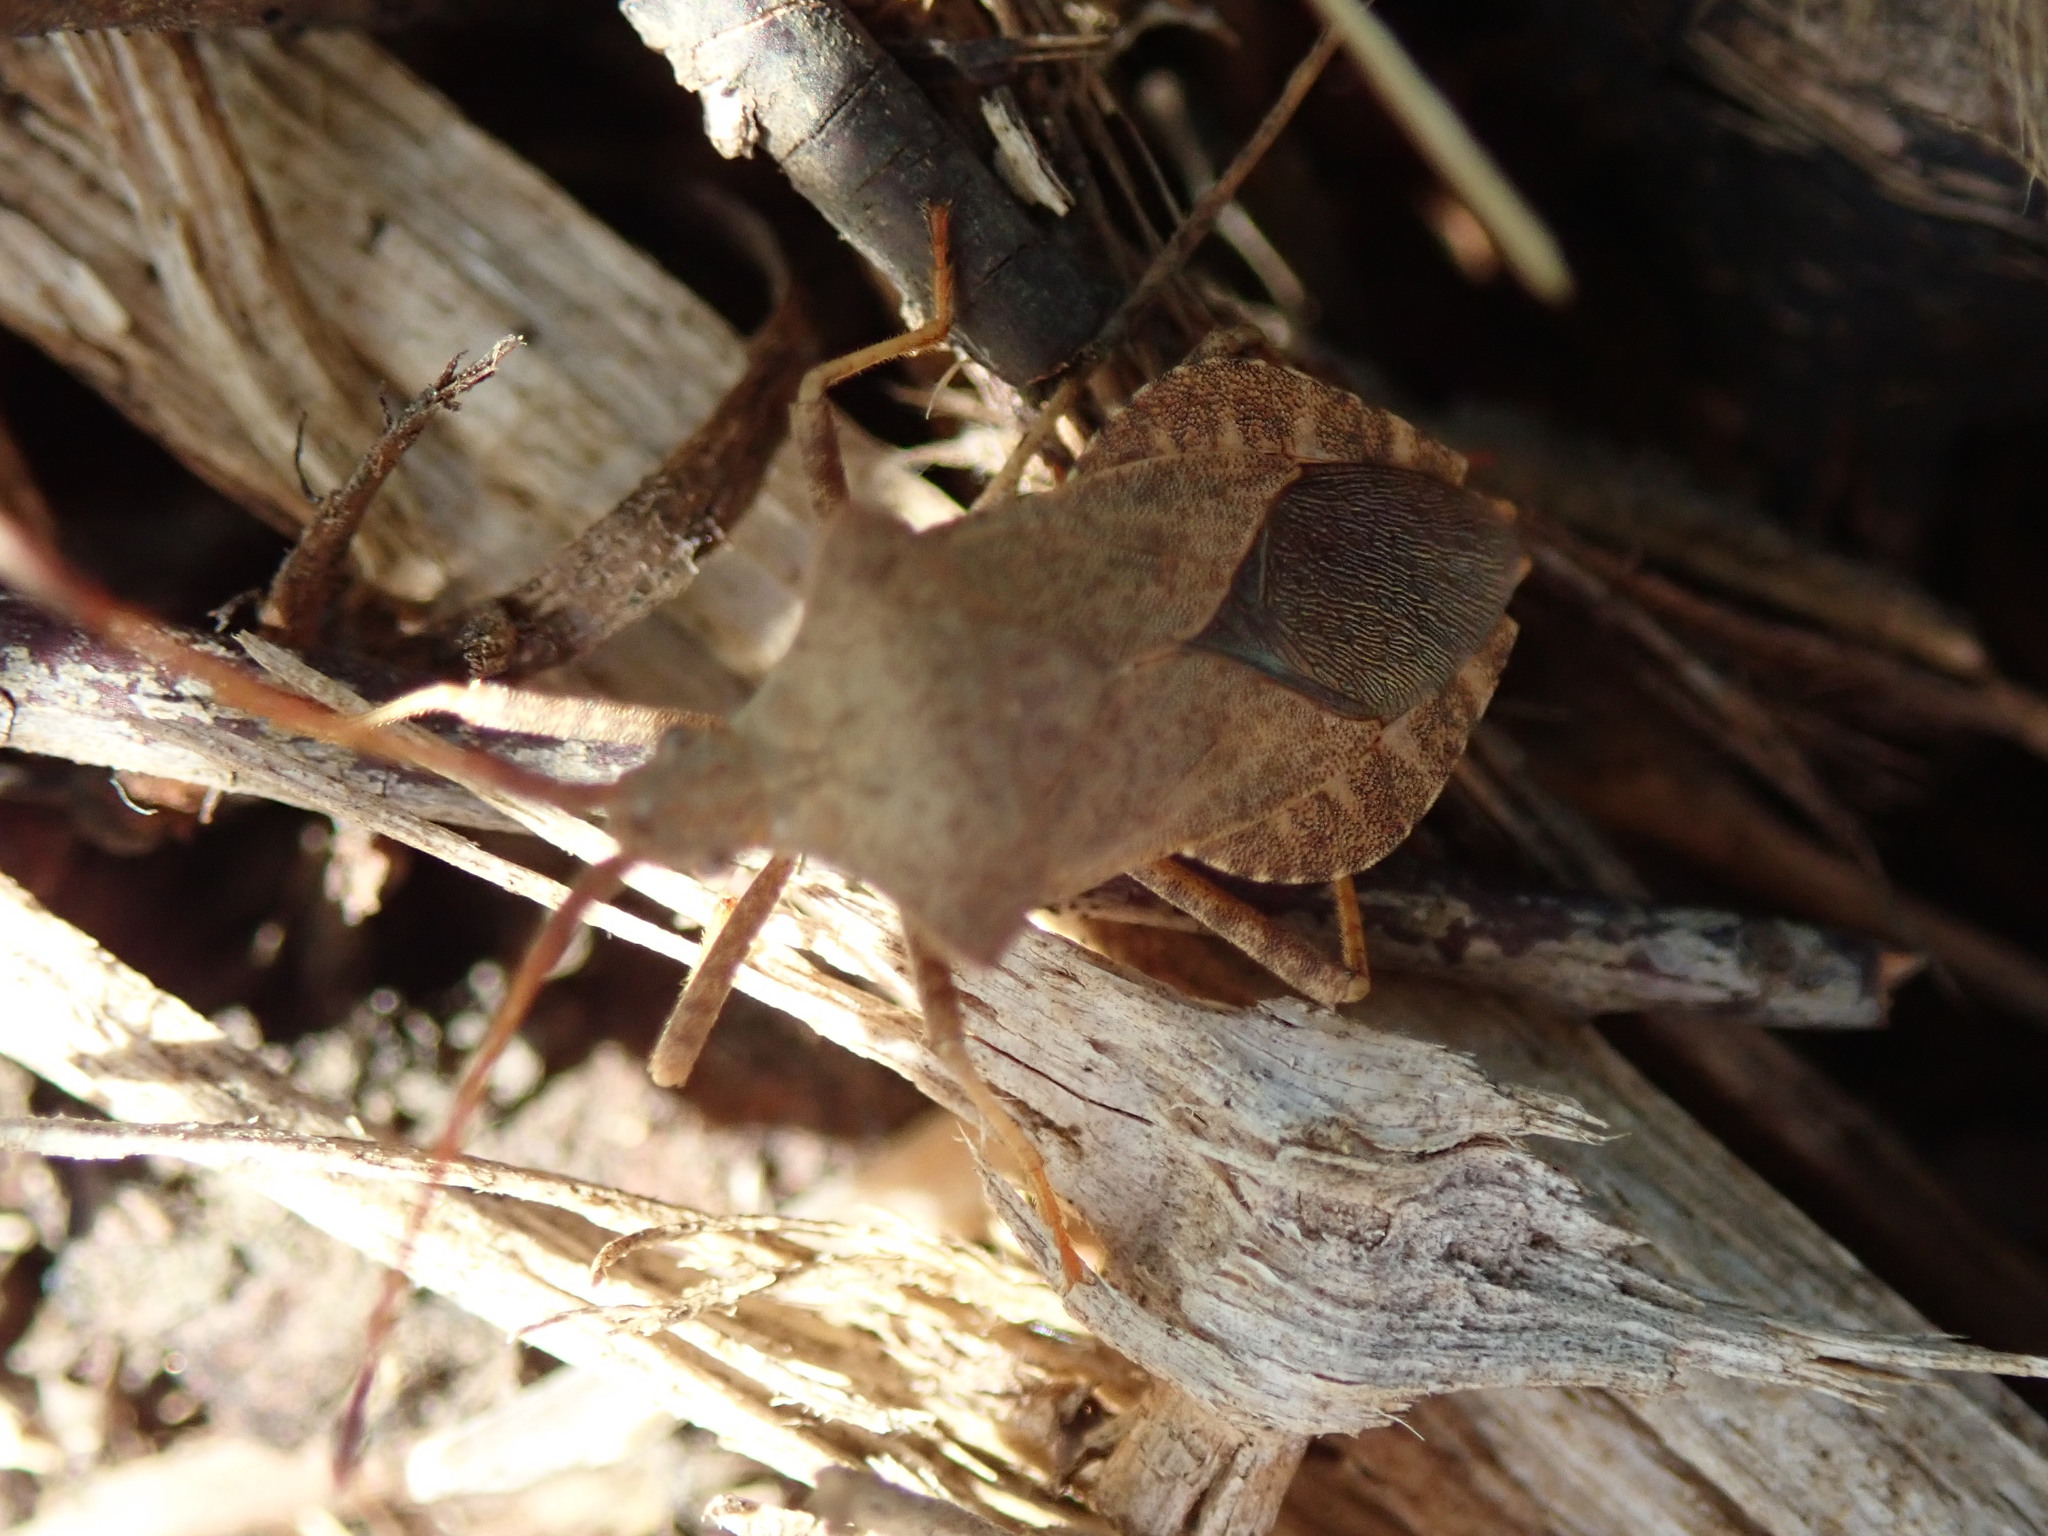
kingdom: Animalia
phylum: Arthropoda
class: Insecta
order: Hemiptera
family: Coreidae
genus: Coreus
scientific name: Coreus marginatus
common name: Dock bug
